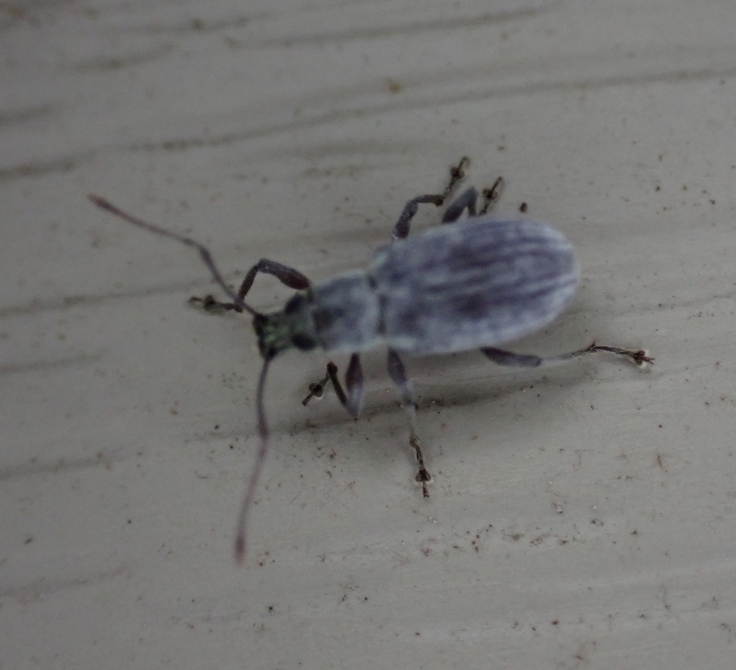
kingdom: Animalia
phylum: Arthropoda
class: Insecta
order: Coleoptera
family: Curculionidae
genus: Cyrtepistomus
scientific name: Cyrtepistomus castaneus
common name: Weevil
